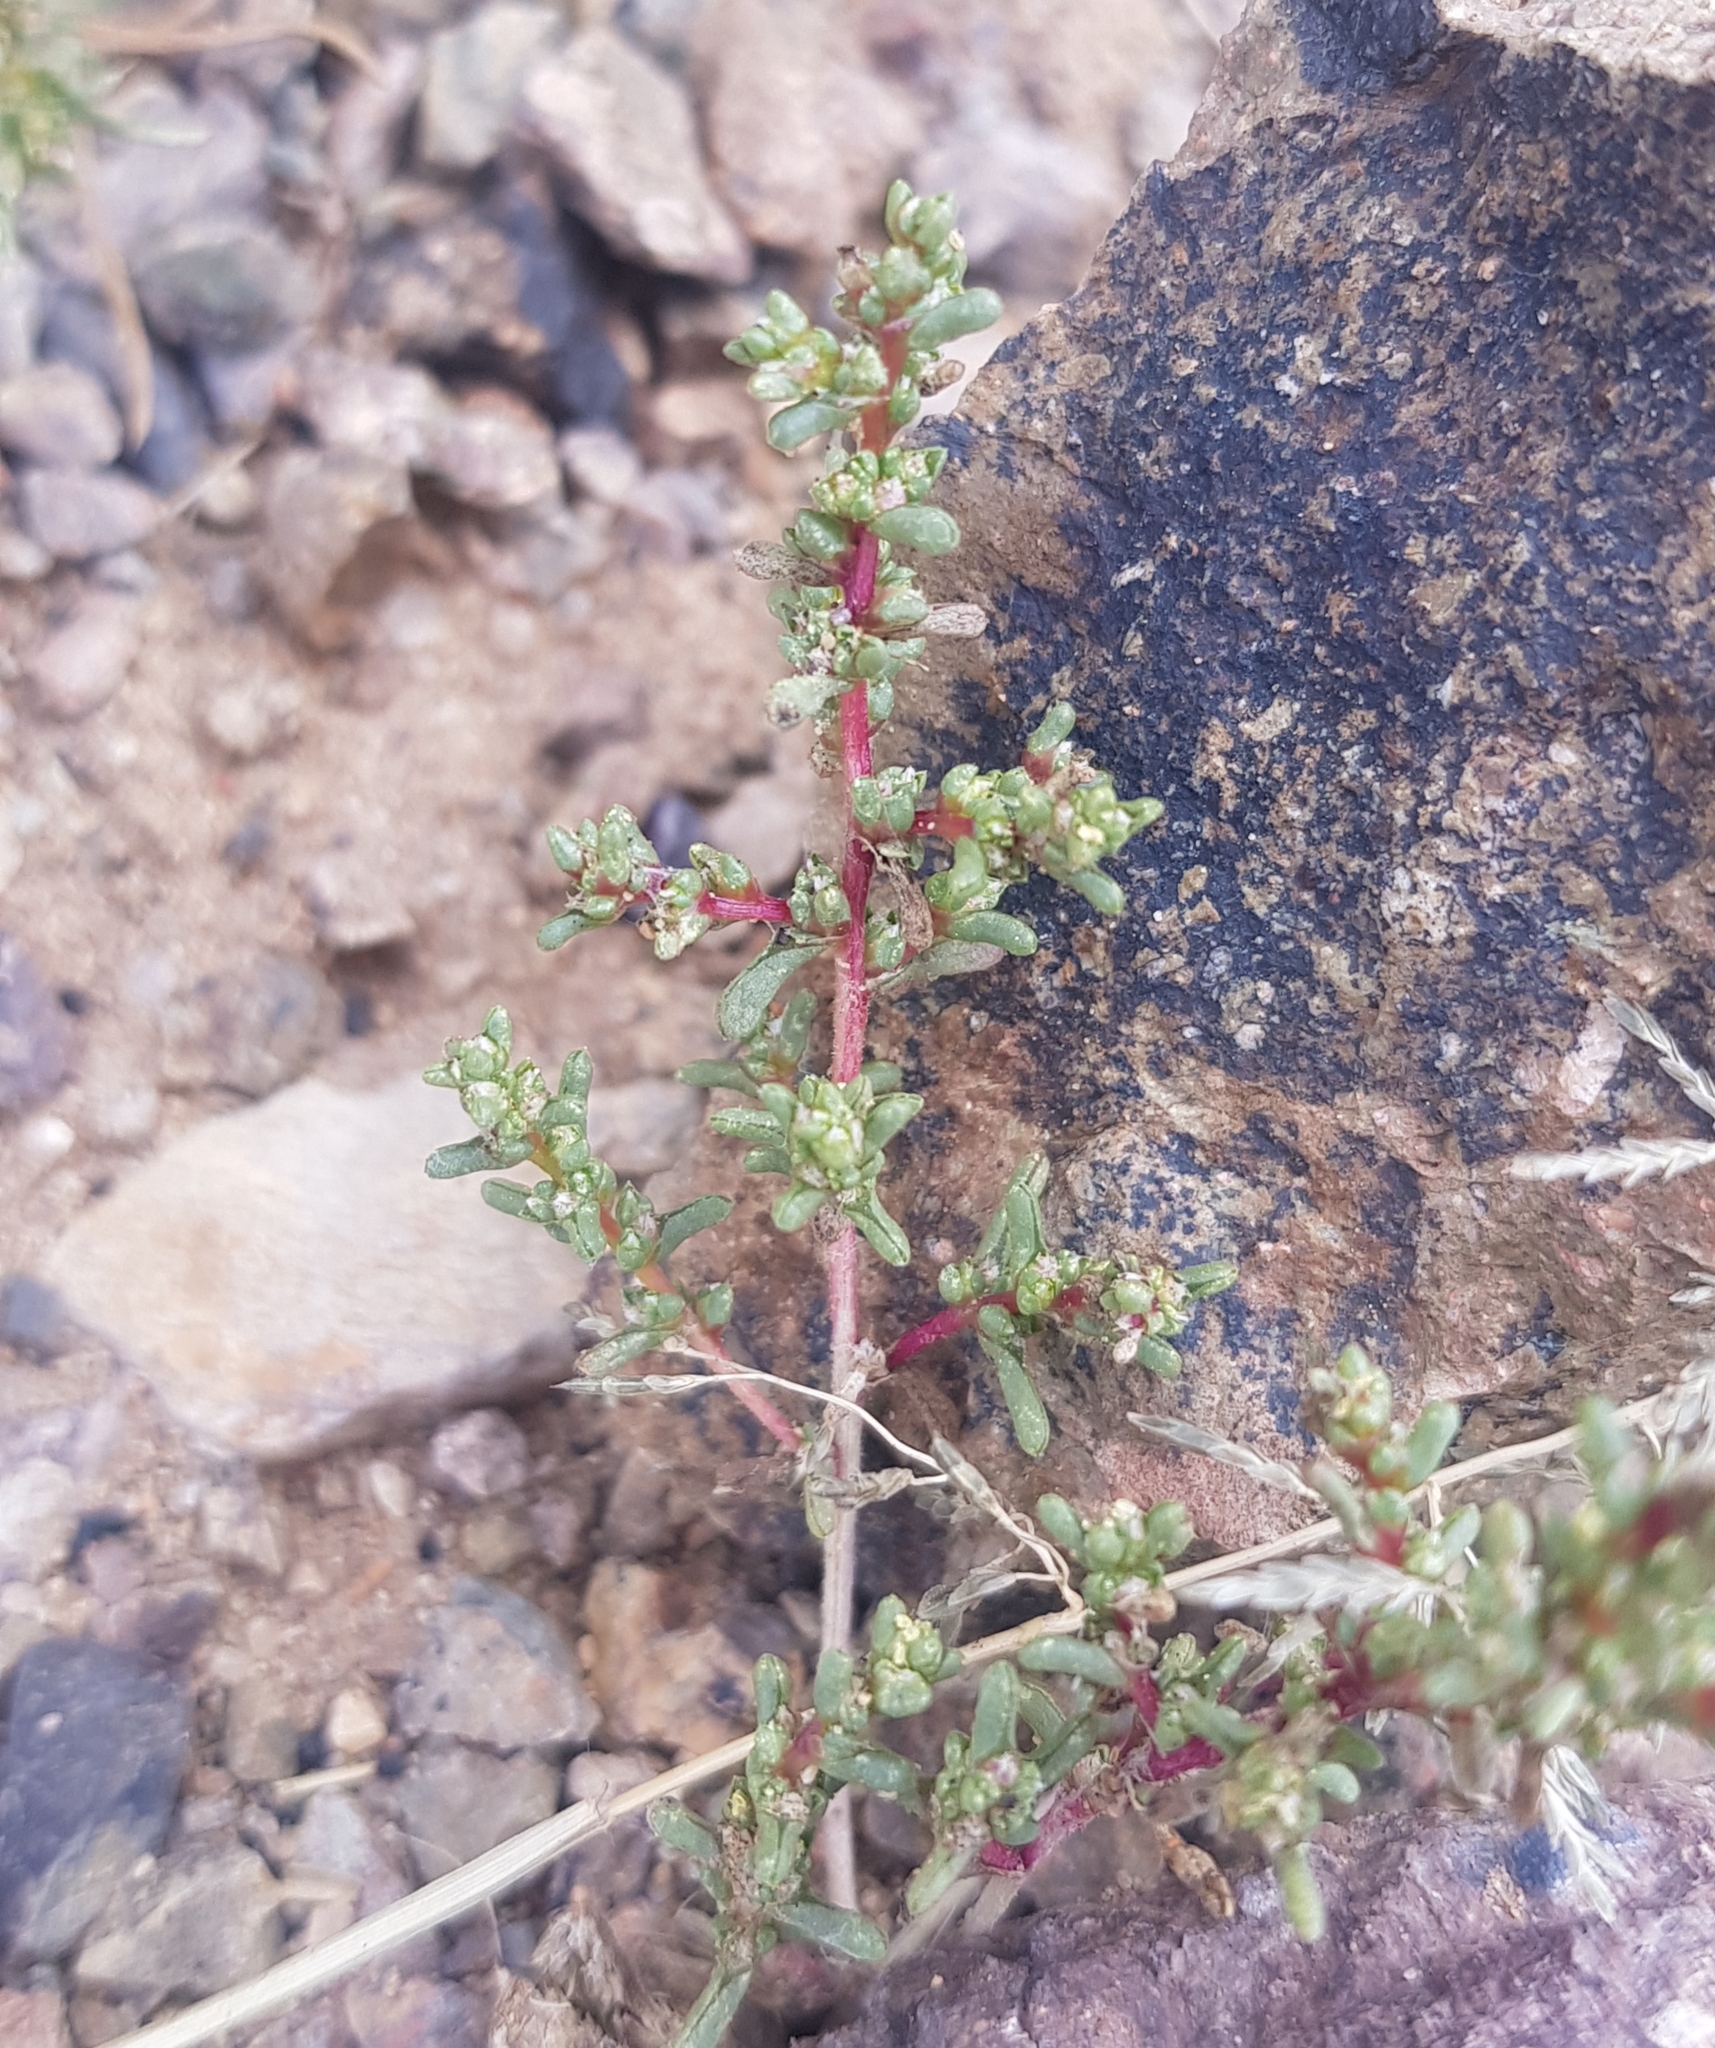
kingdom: Plantae
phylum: Tracheophyta
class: Magnoliopsida
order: Caryophyllales
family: Amaranthaceae
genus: Halogeton
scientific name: Halogeton arachnoides
